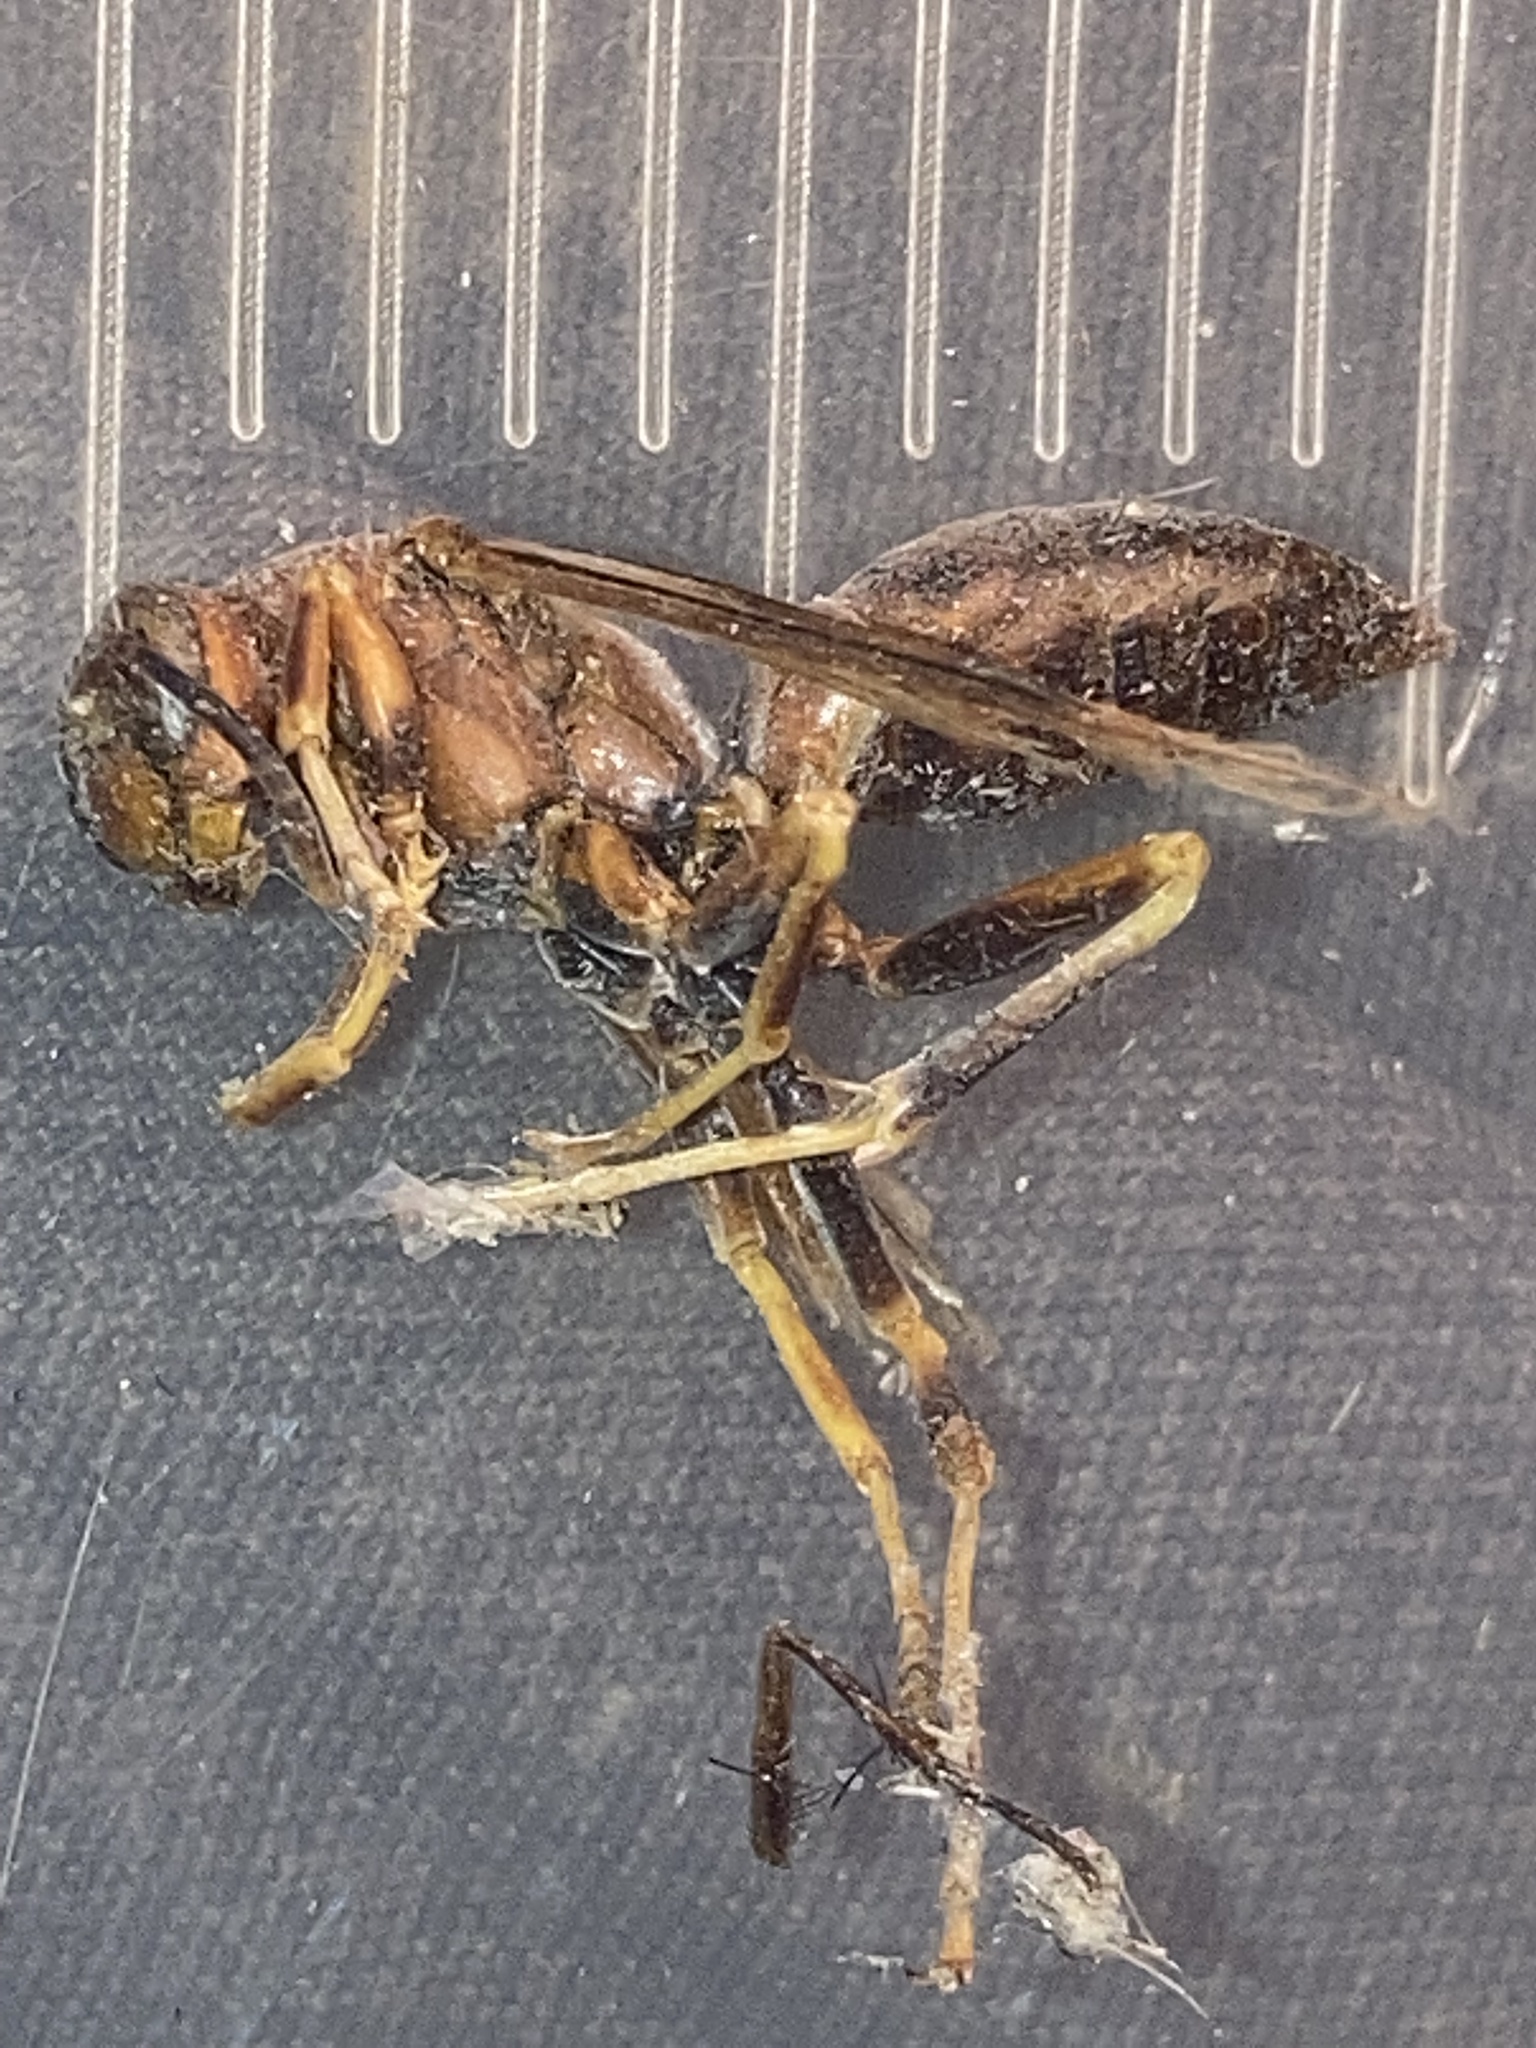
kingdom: Animalia
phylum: Arthropoda
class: Insecta
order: Hymenoptera
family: Eumenidae
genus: Polistes
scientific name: Polistes metricus
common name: Metric paper wasp
